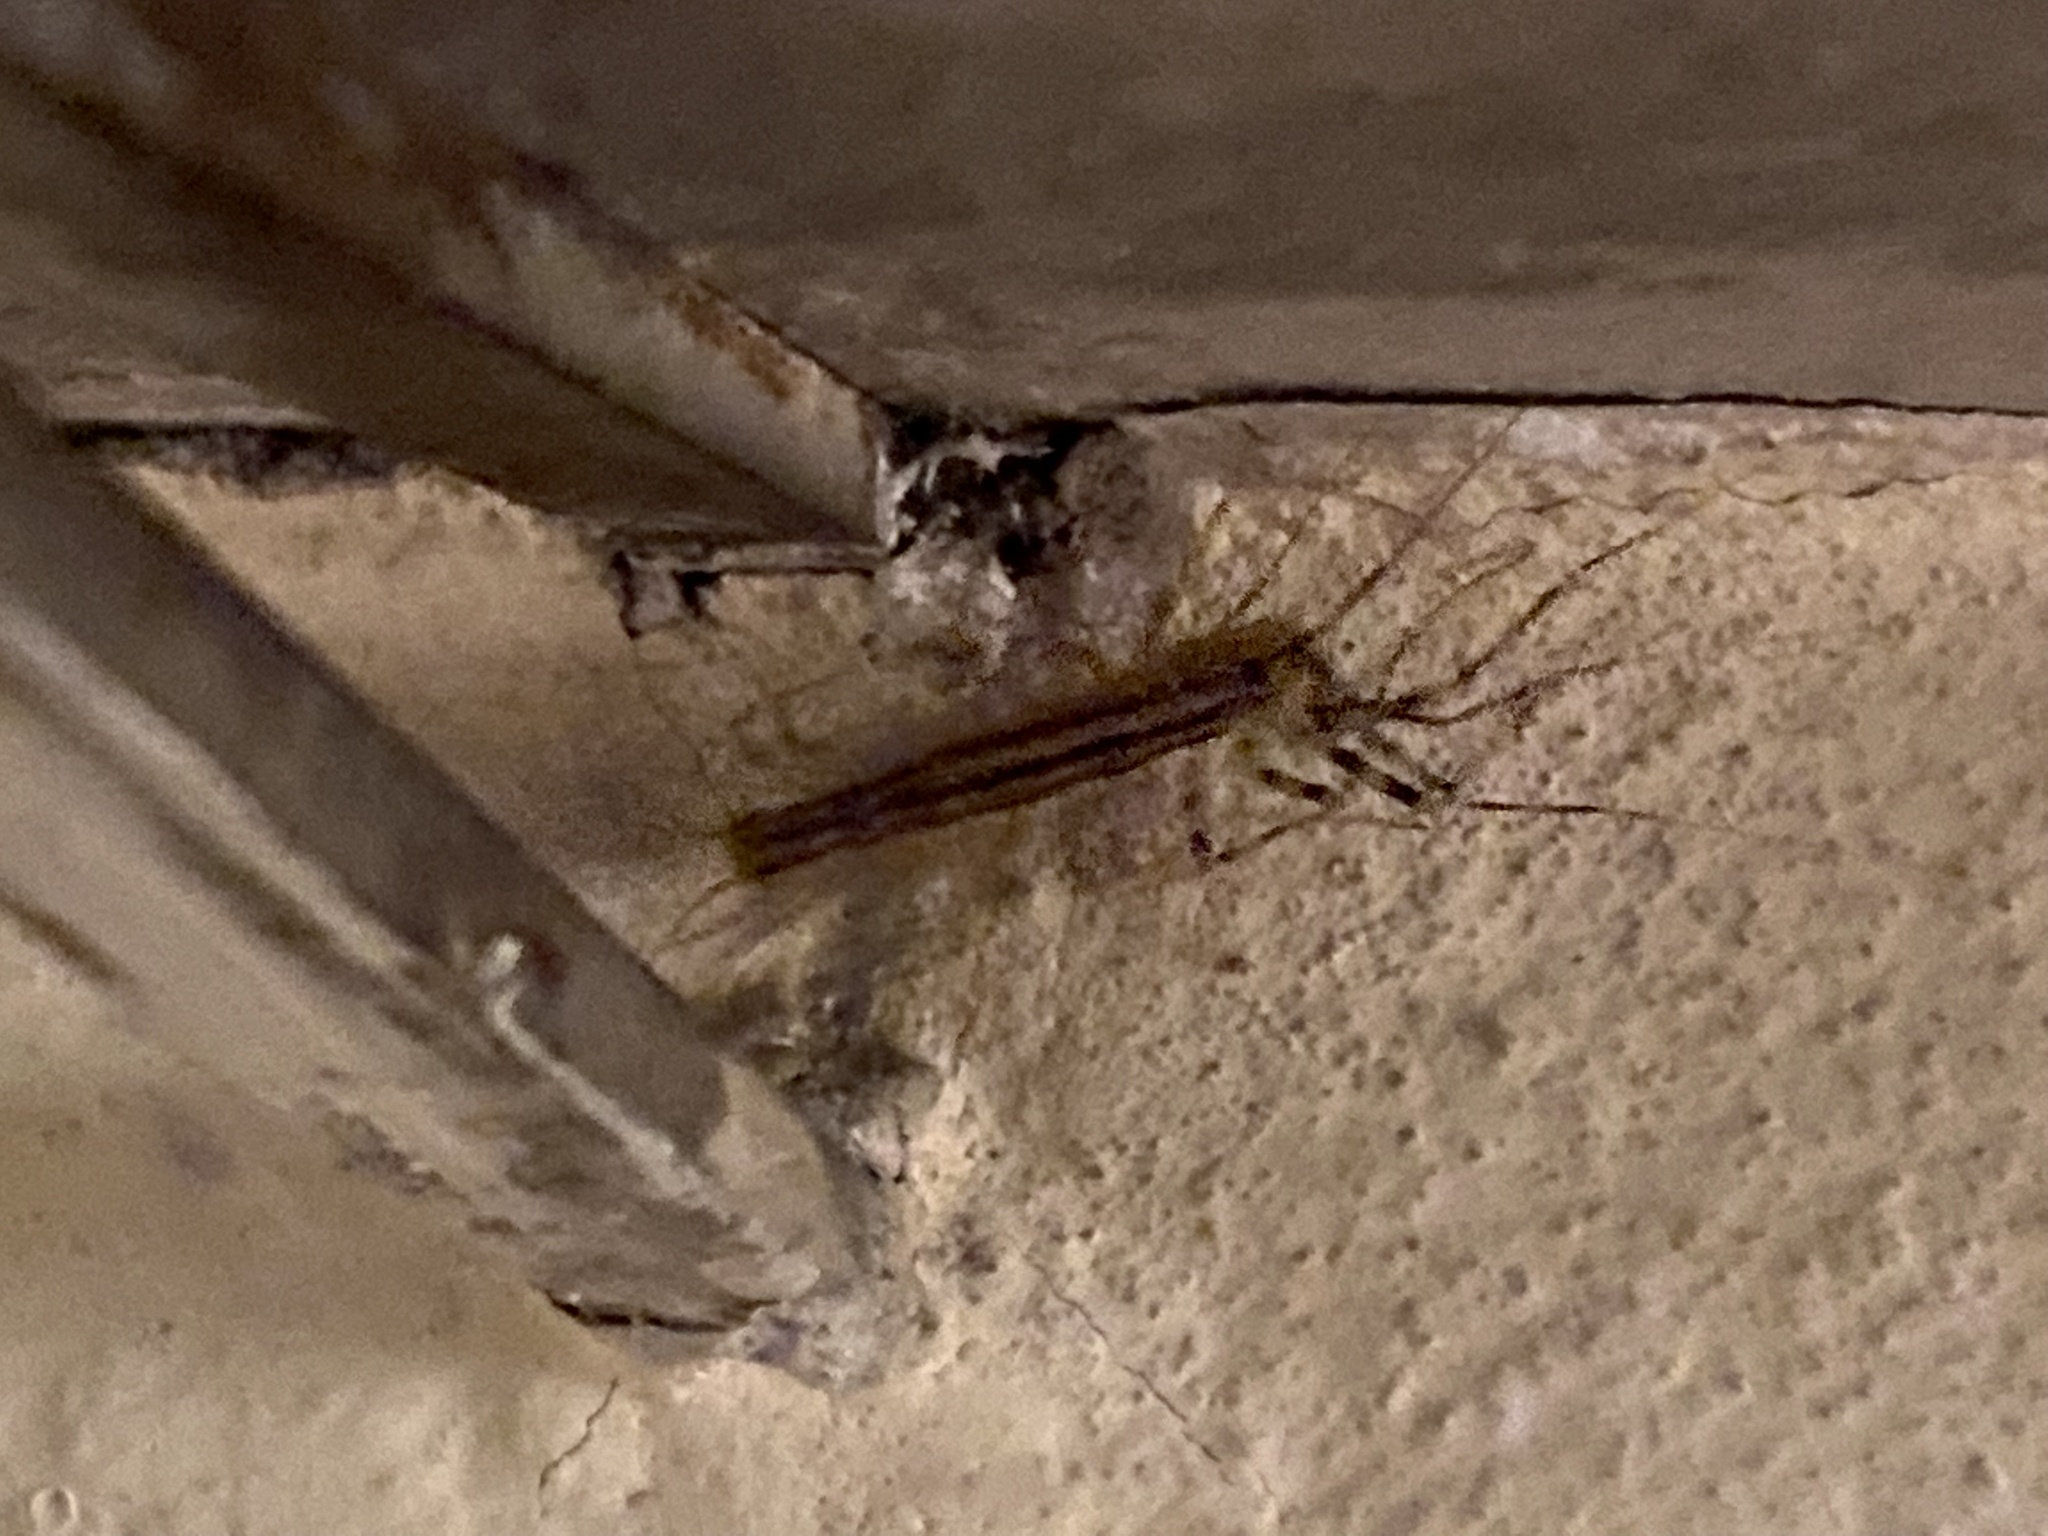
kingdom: Animalia
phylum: Arthropoda
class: Chilopoda
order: Scutigeromorpha
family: Scutigeridae
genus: Scutigera
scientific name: Scutigera coleoptrata
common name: House centipede
